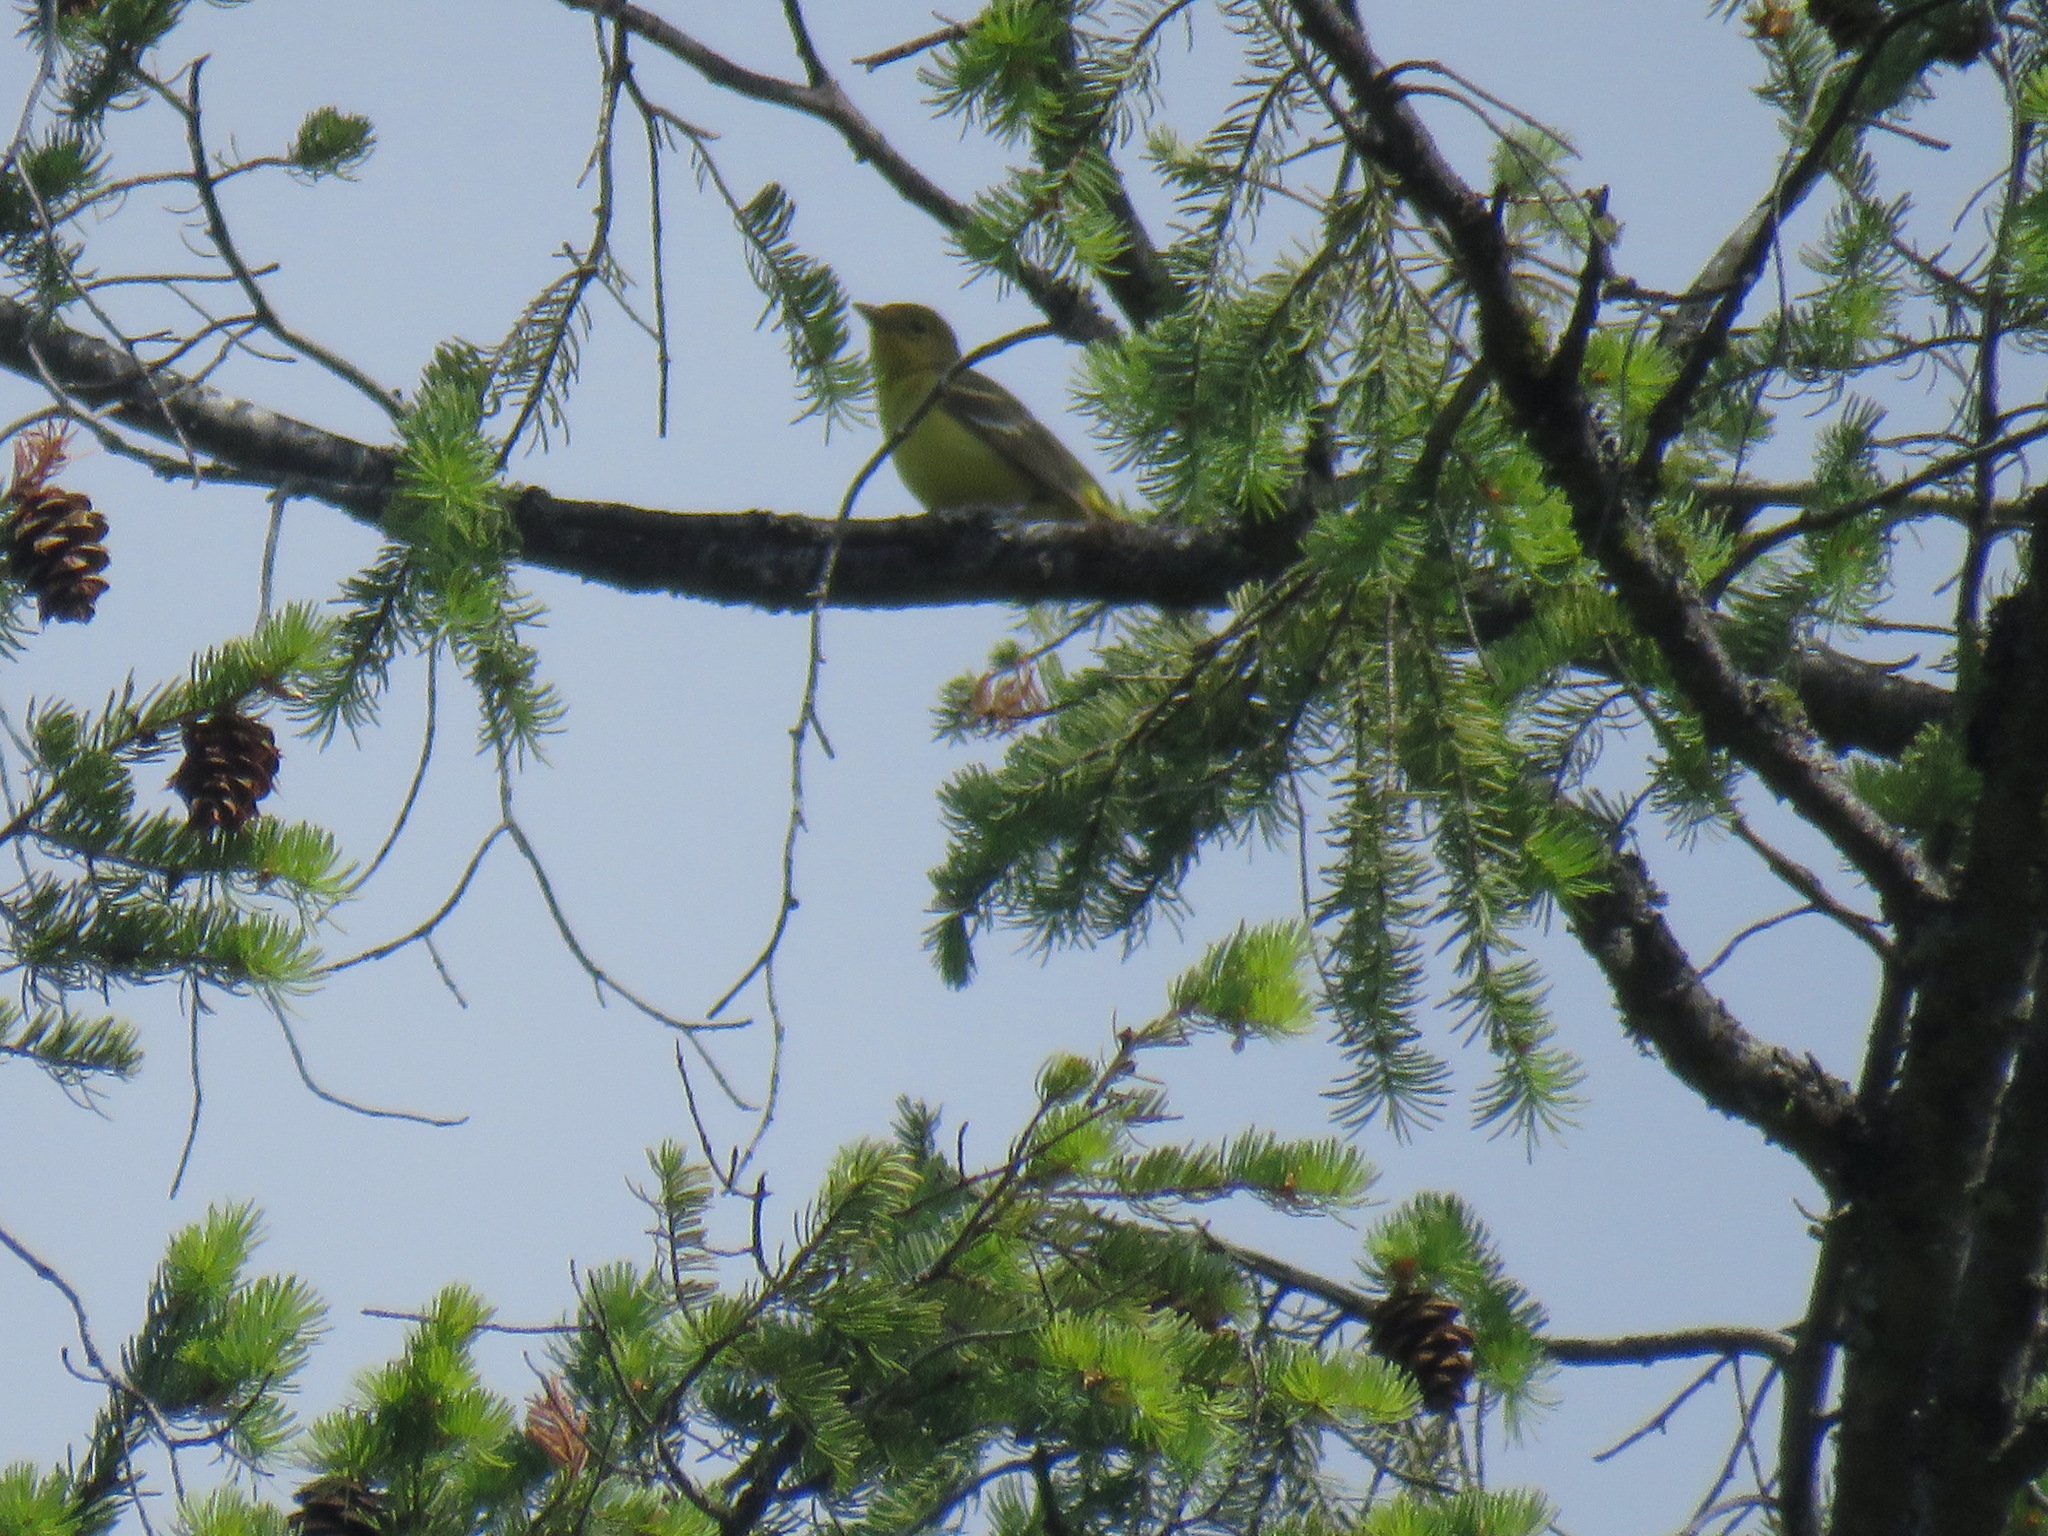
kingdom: Animalia
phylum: Chordata
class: Aves
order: Passeriformes
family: Cardinalidae
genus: Piranga
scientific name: Piranga ludoviciana
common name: Western tanager
